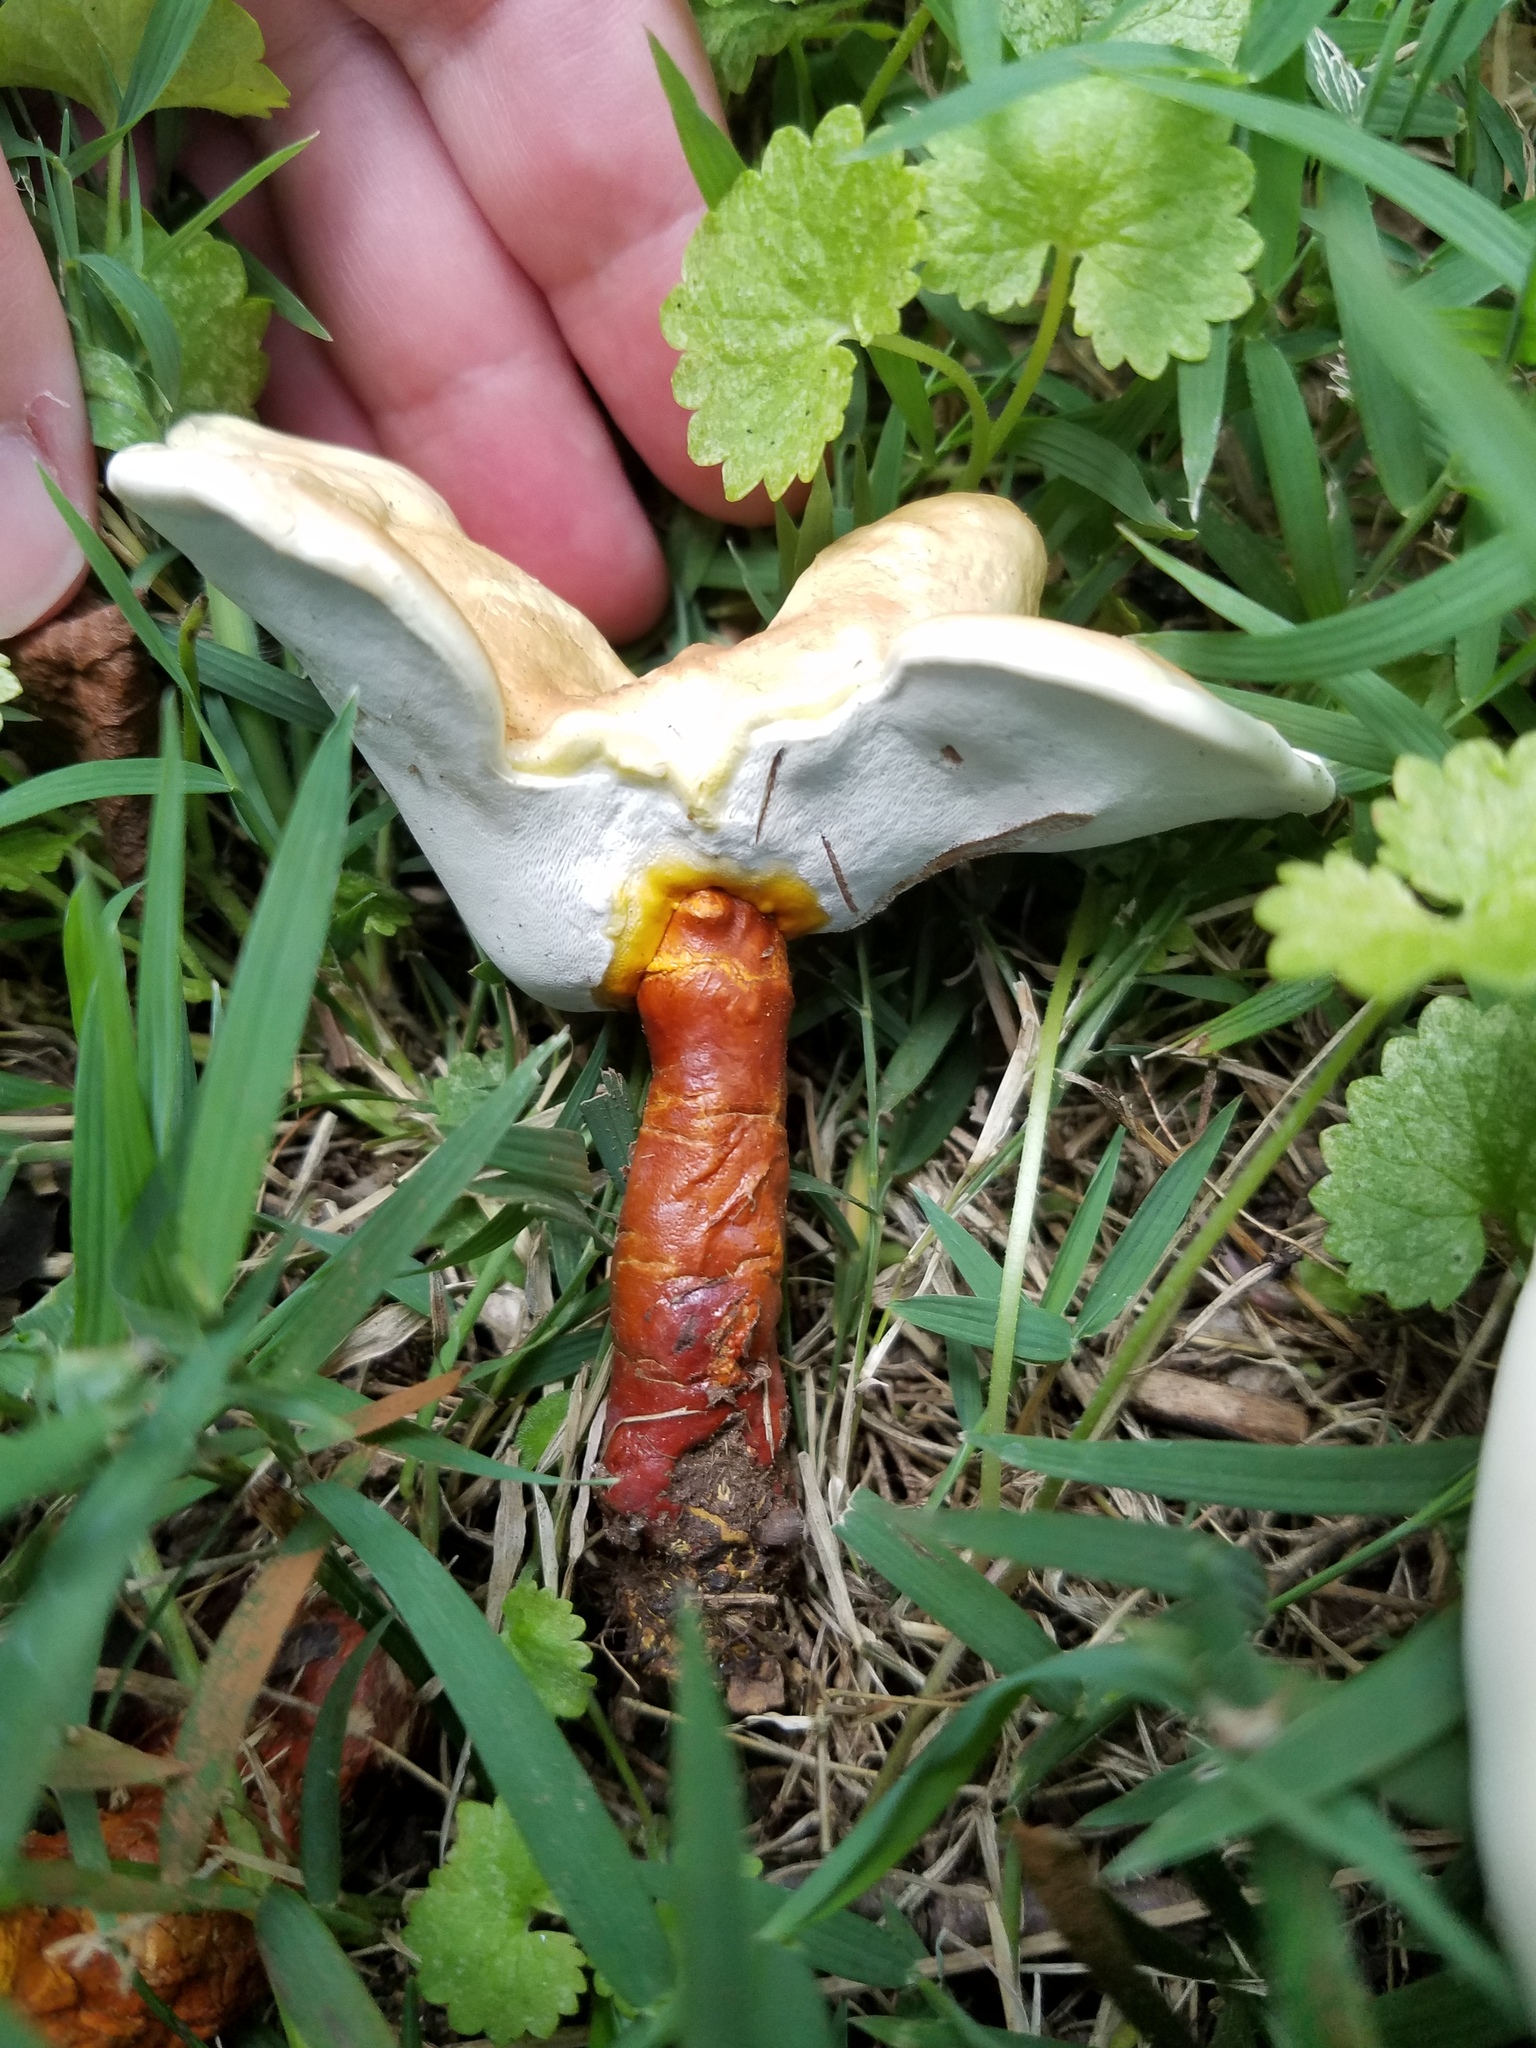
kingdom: Fungi
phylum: Basidiomycota
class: Agaricomycetes
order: Polyporales
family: Polyporaceae
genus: Ganoderma
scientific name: Ganoderma curtisii
